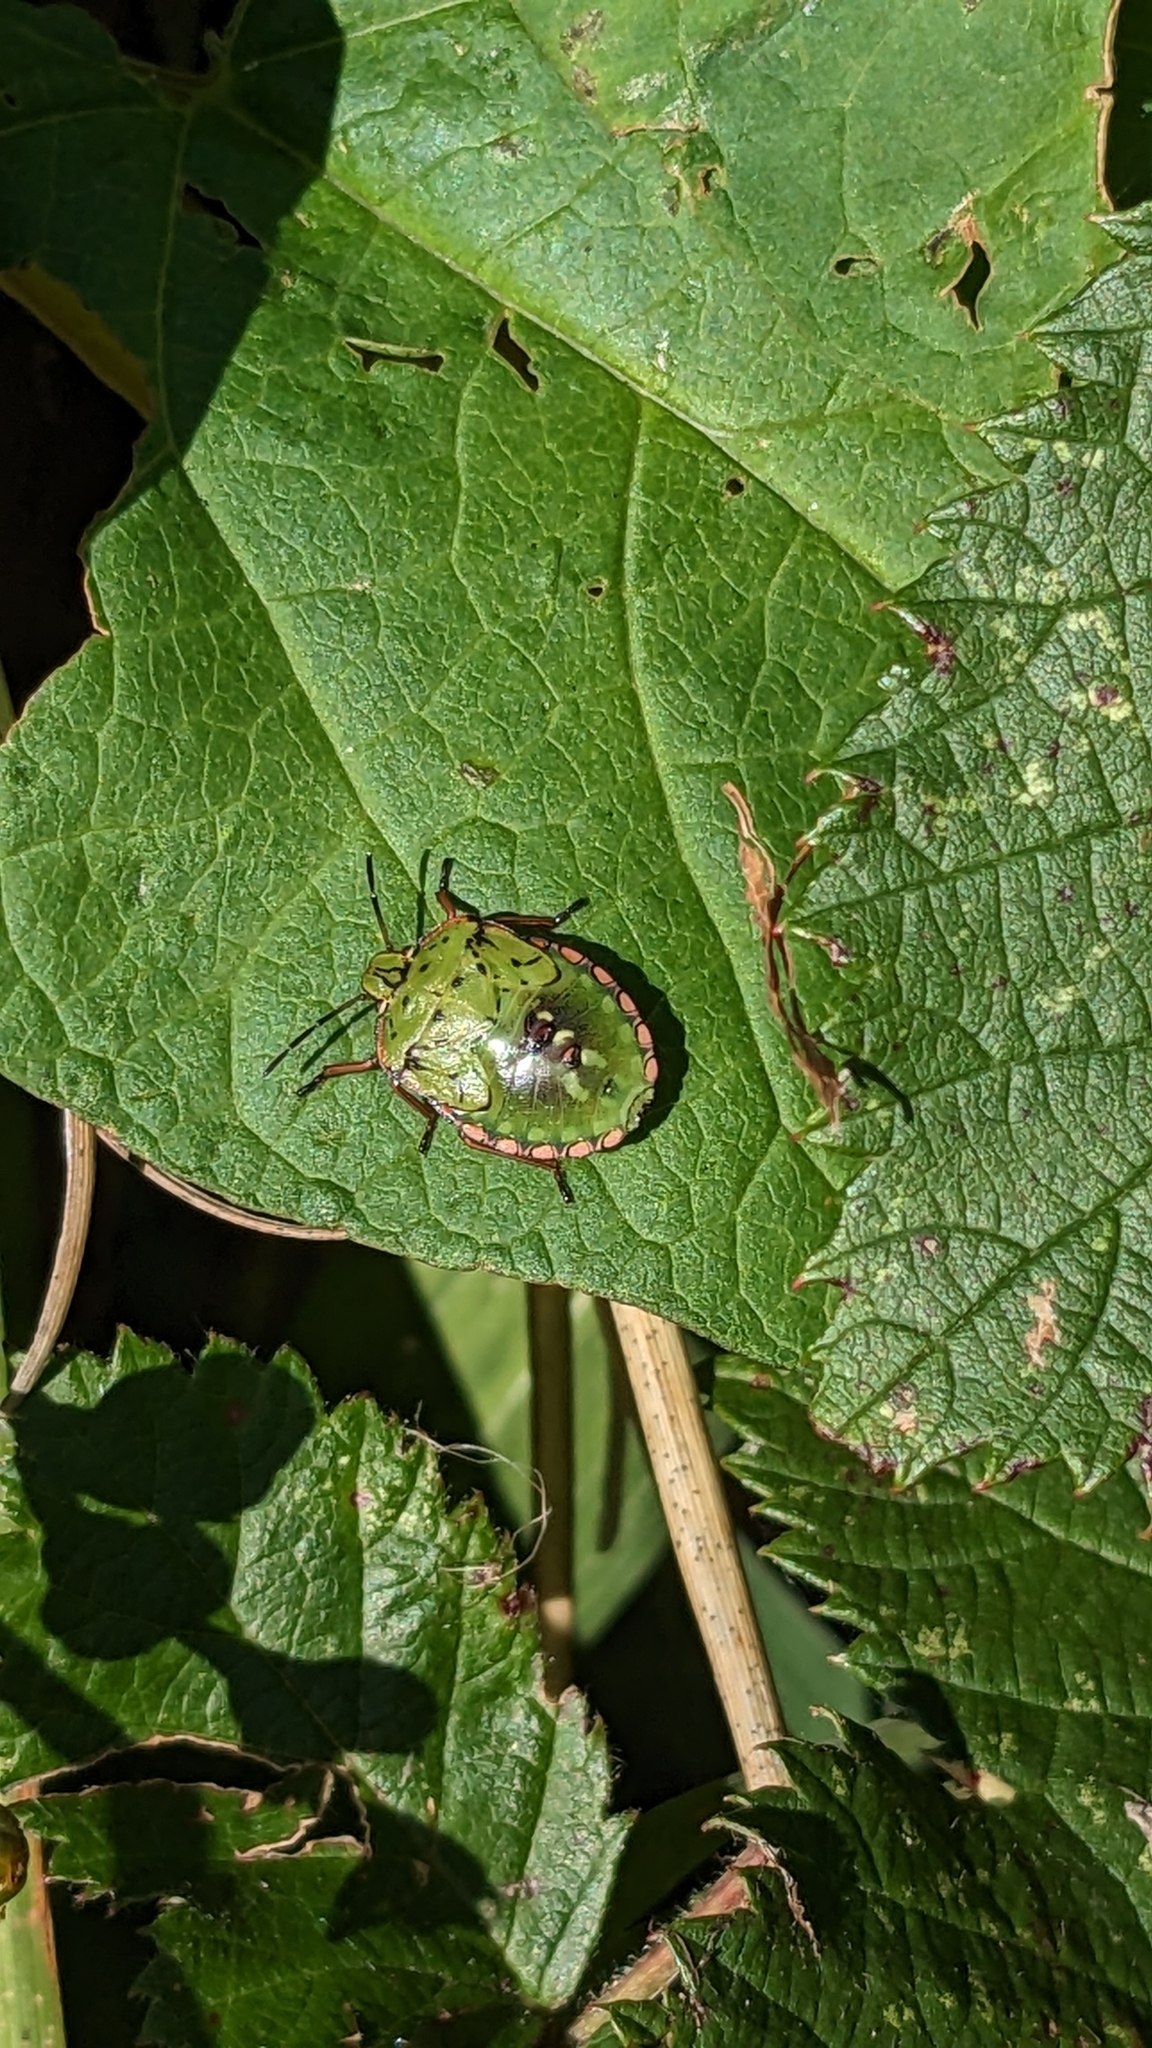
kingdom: Animalia
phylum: Arthropoda
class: Insecta
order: Hemiptera
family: Pentatomidae
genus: Nezara
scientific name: Nezara viridula
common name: Southern green stink bug
